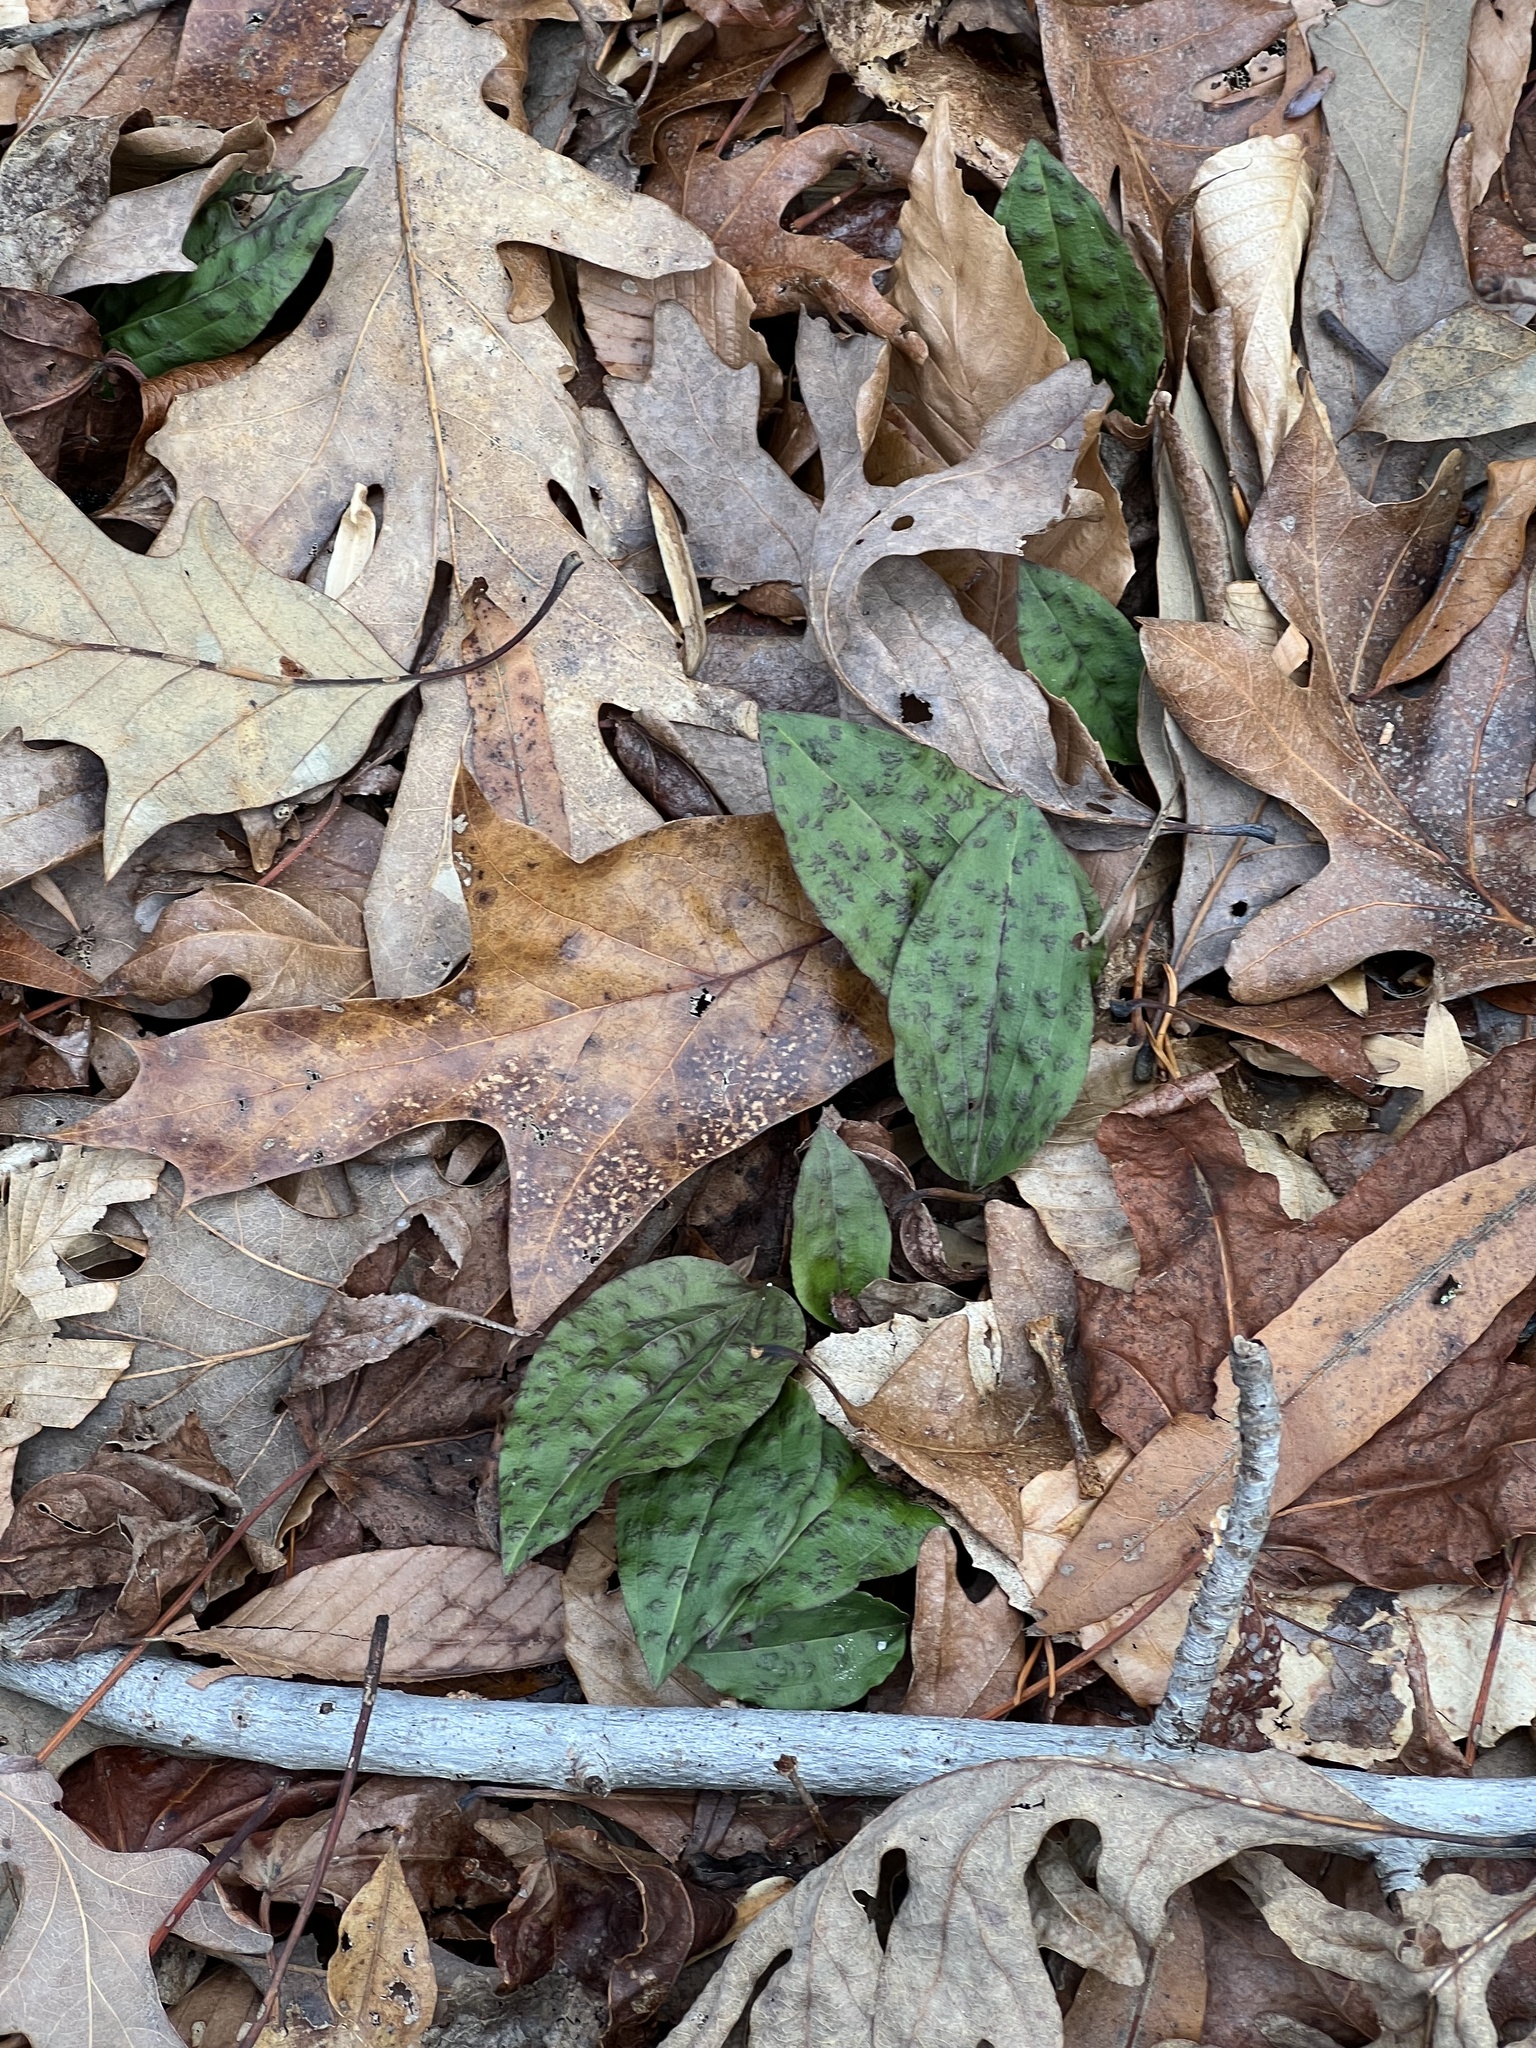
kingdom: Plantae
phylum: Tracheophyta
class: Liliopsida
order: Asparagales
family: Orchidaceae
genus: Tipularia
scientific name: Tipularia discolor
